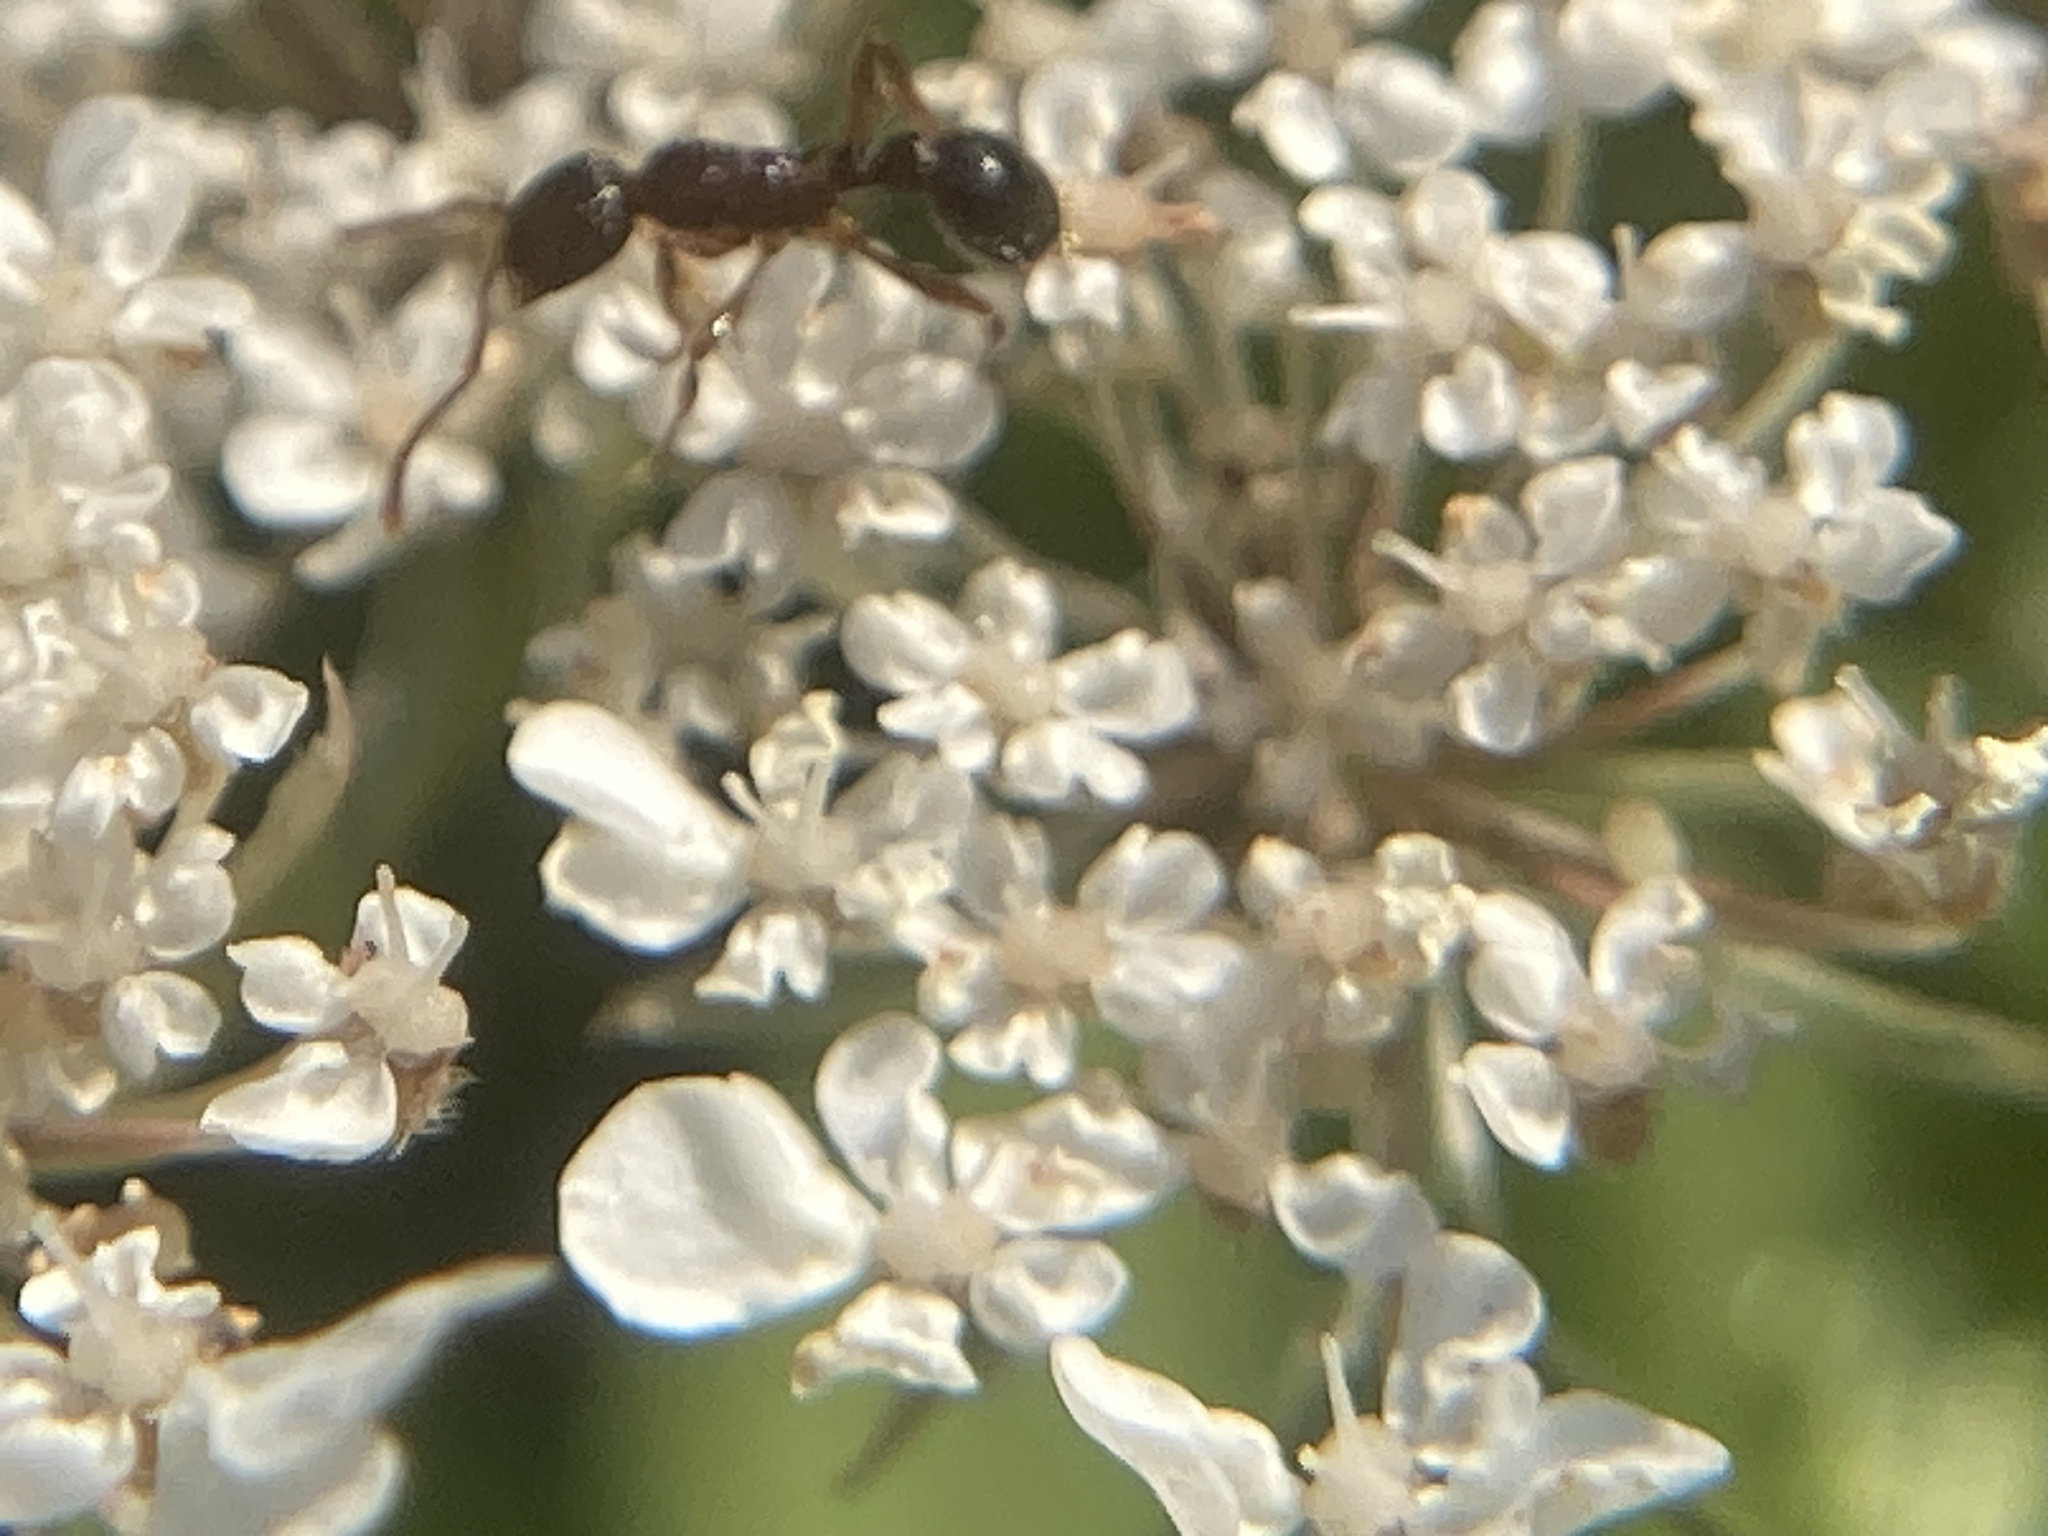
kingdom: Animalia
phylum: Arthropoda
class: Insecta
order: Hymenoptera
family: Formicidae
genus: Myrmica
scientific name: Myrmica
